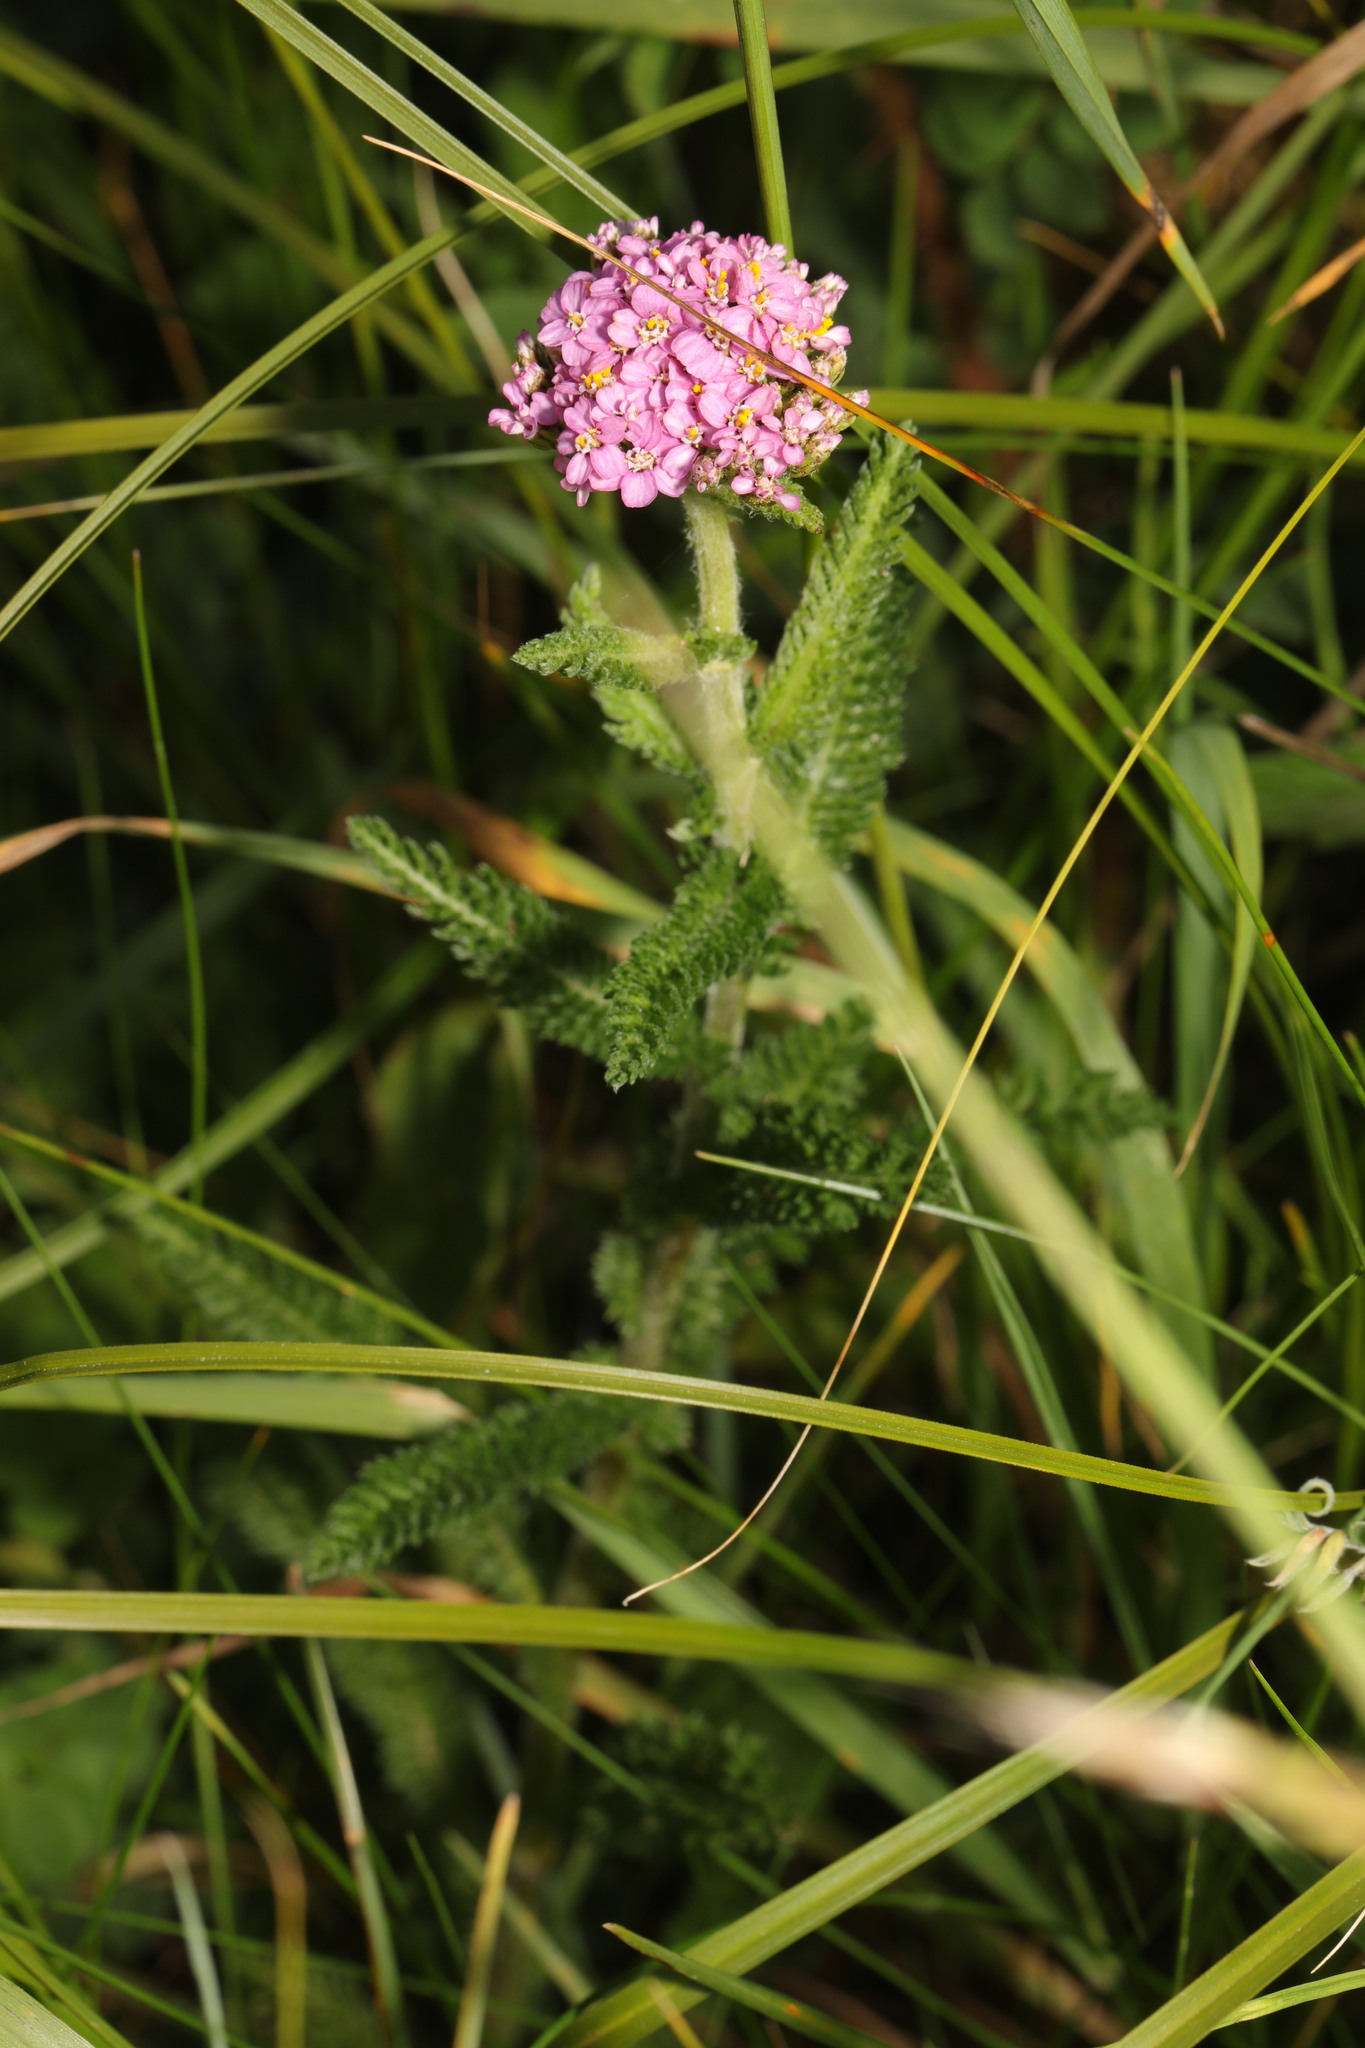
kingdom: Plantae
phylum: Tracheophyta
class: Magnoliopsida
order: Asterales
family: Asteraceae
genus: Achillea
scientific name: Achillea millefolium
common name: Yarrow
